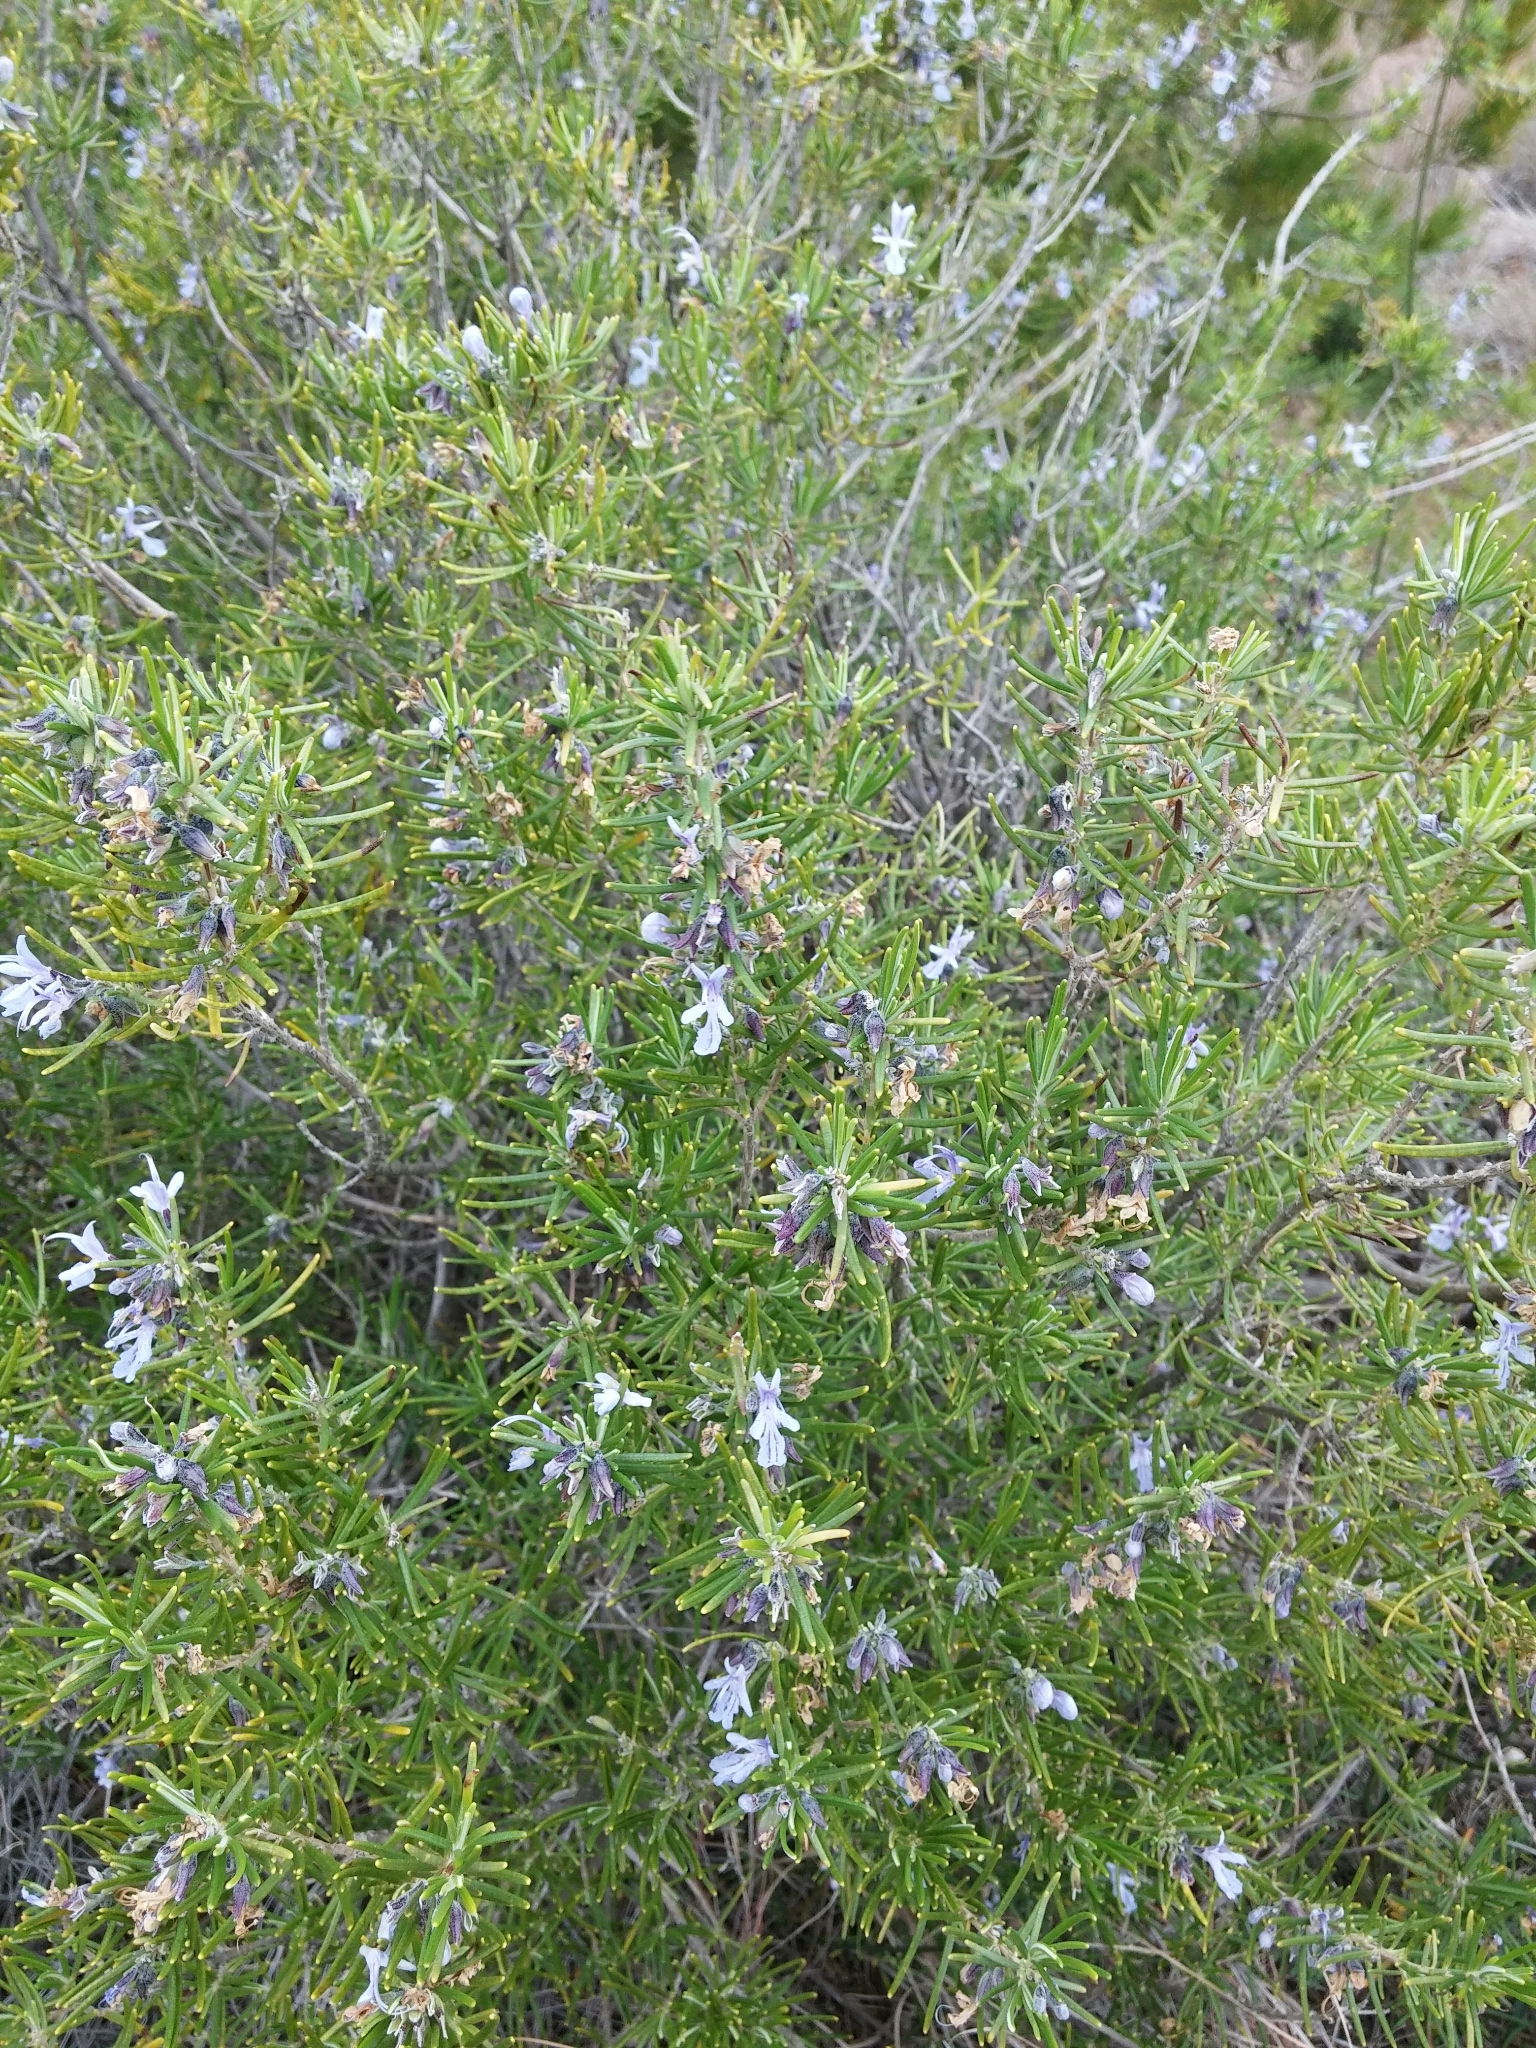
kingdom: Plantae
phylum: Tracheophyta
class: Magnoliopsida
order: Lamiales
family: Lamiaceae
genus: Salvia
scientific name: Salvia rosmarinus
